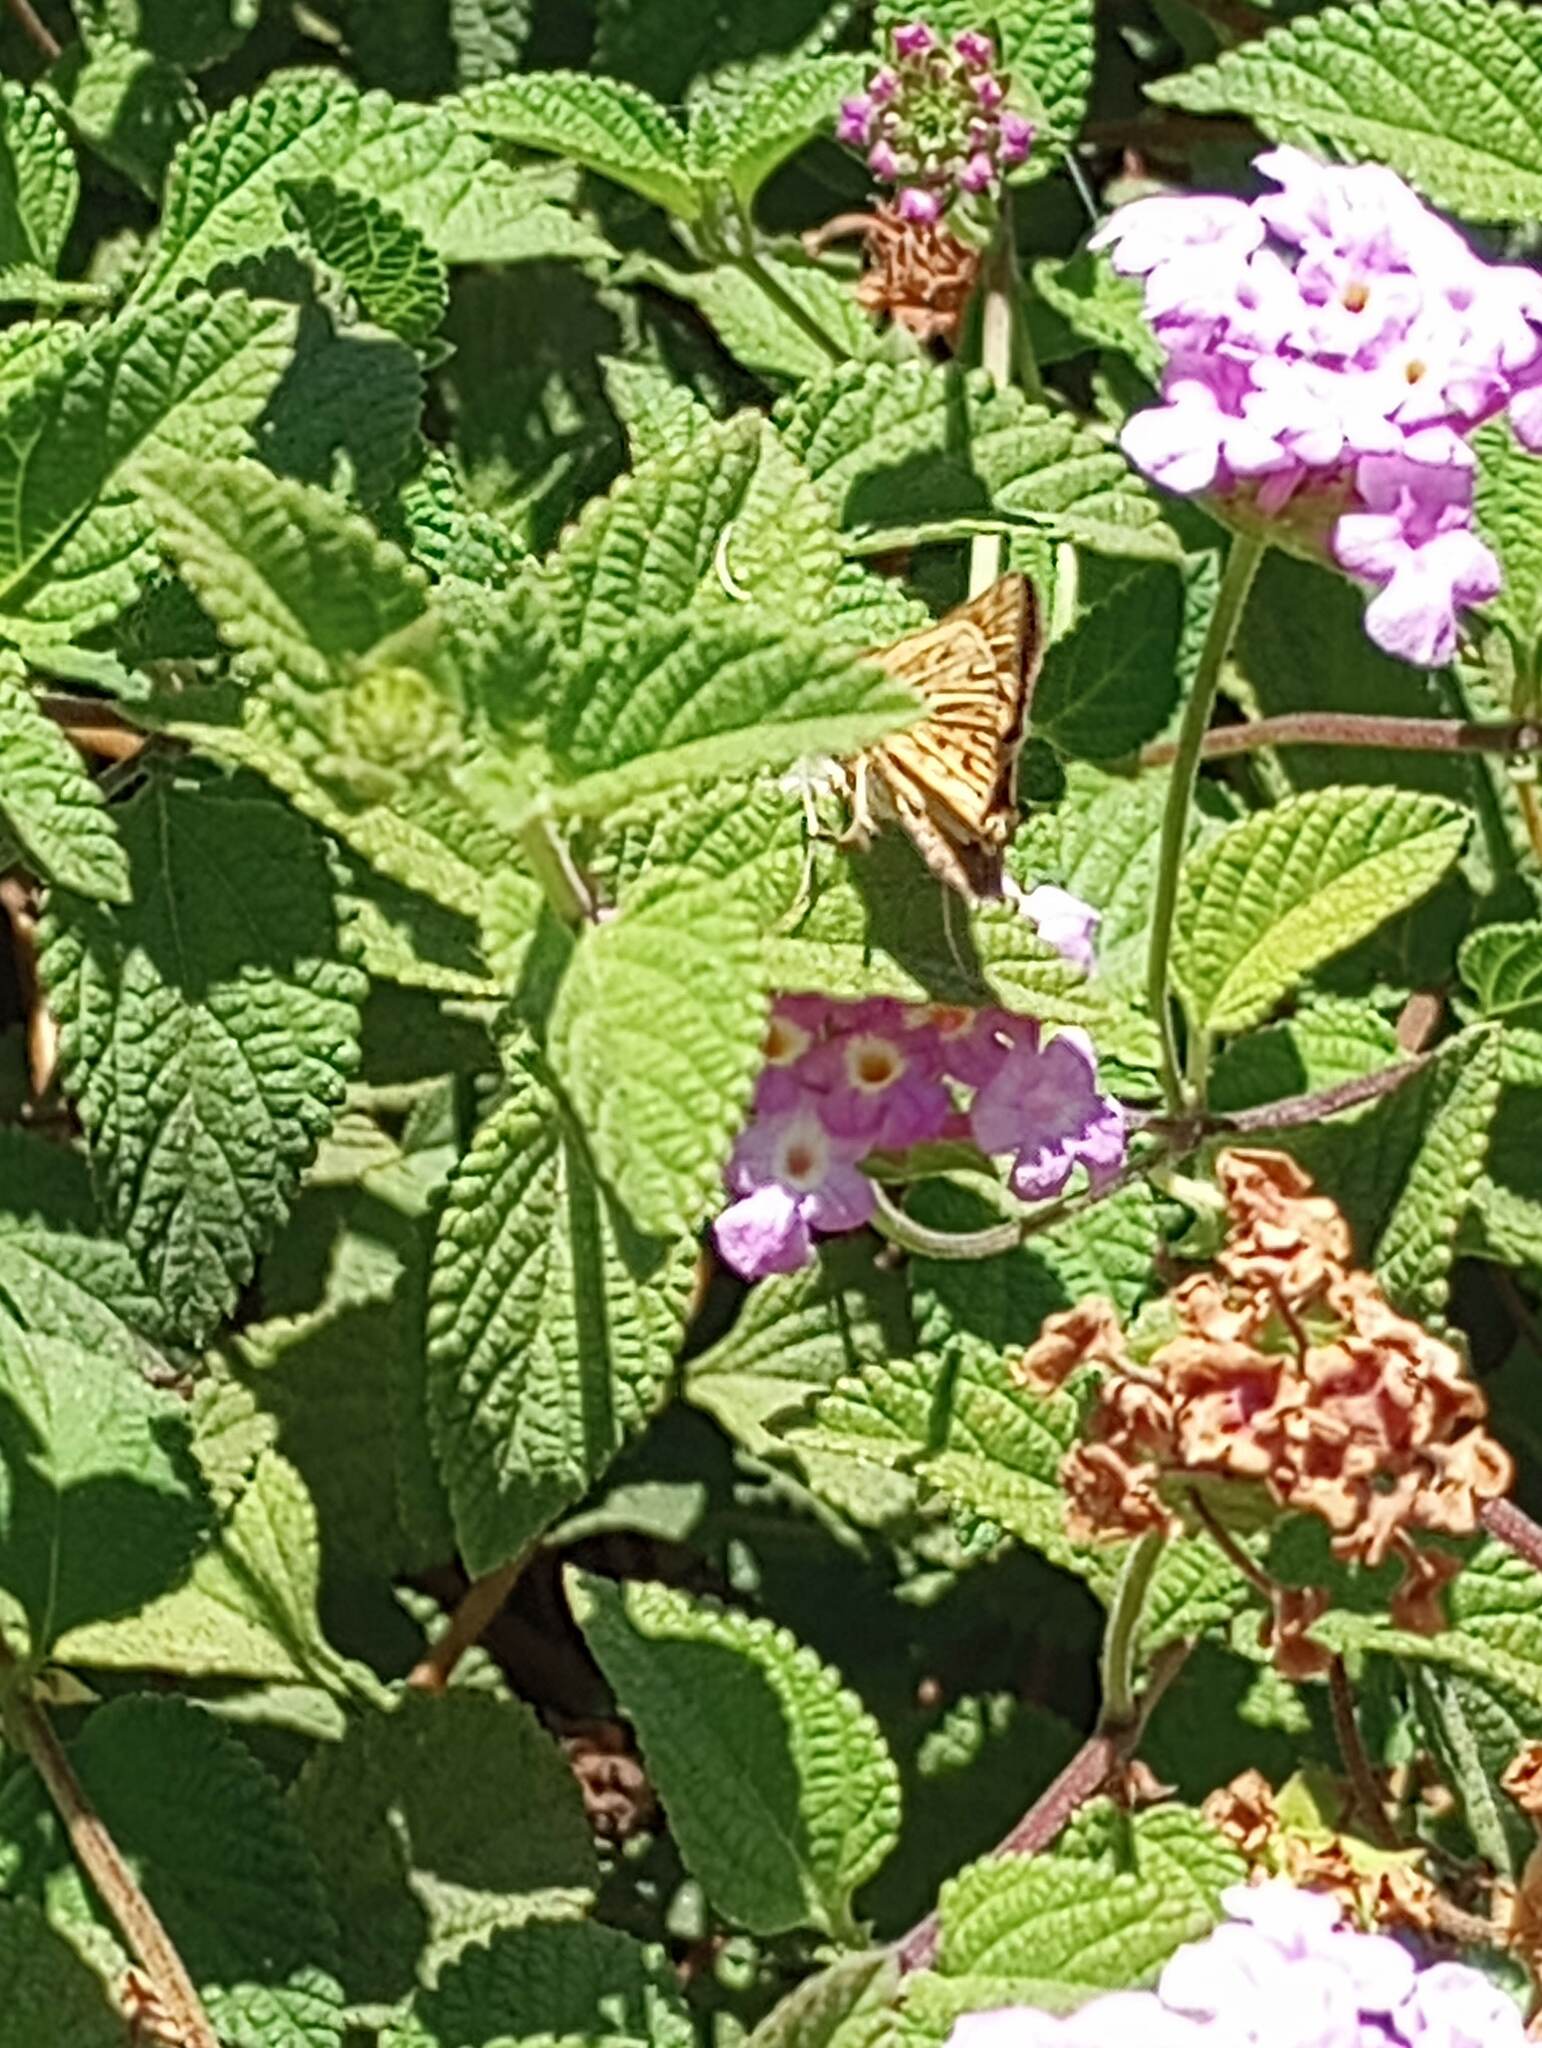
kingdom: Animalia
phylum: Arthropoda
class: Insecta
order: Lepidoptera
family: Hesperiidae
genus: Hylephila
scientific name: Hylephila phyleus
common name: Fiery skipper
